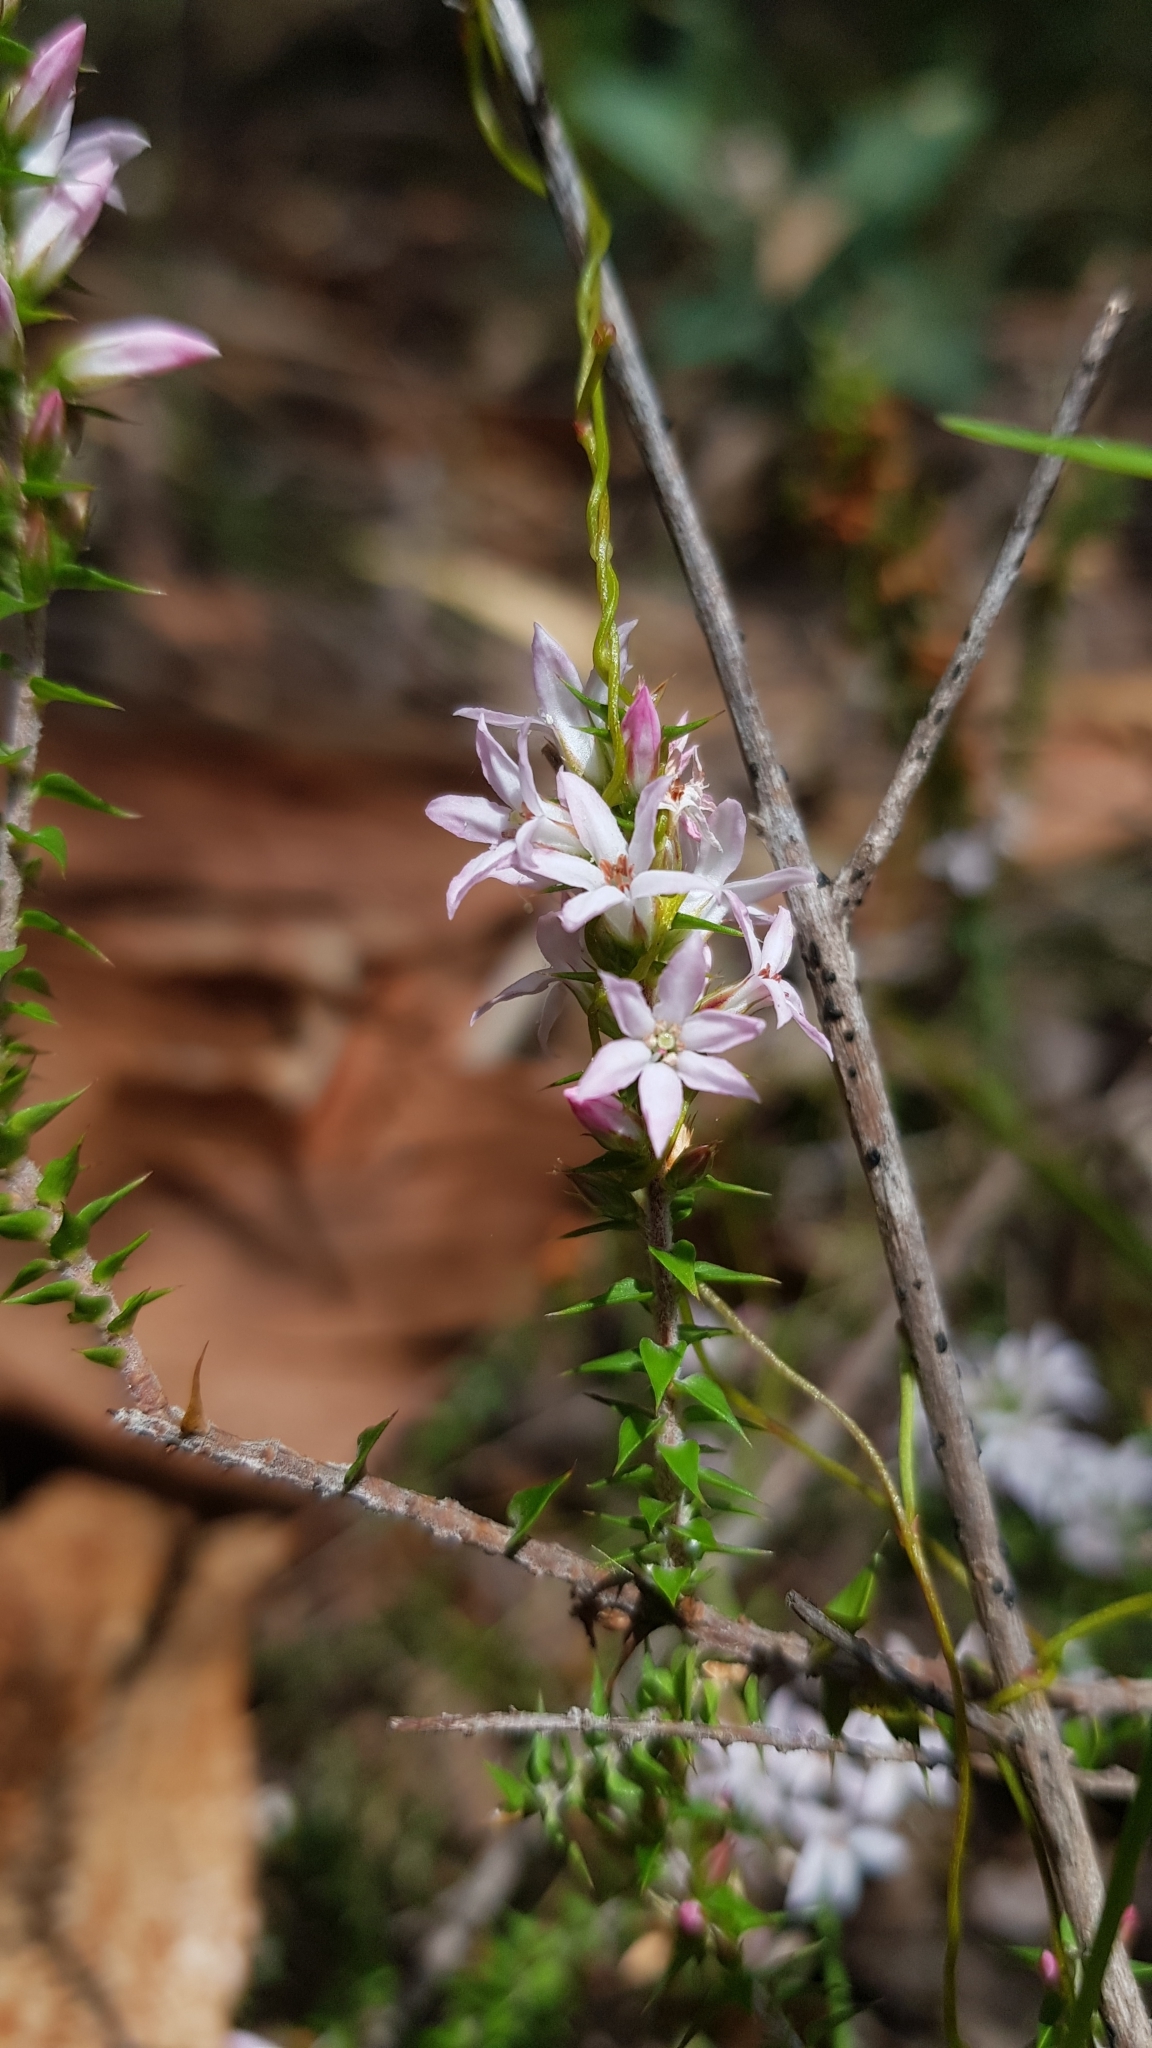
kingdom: Plantae
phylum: Tracheophyta
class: Magnoliopsida
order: Ericales
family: Ericaceae
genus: Epacris
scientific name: Epacris pulchella
